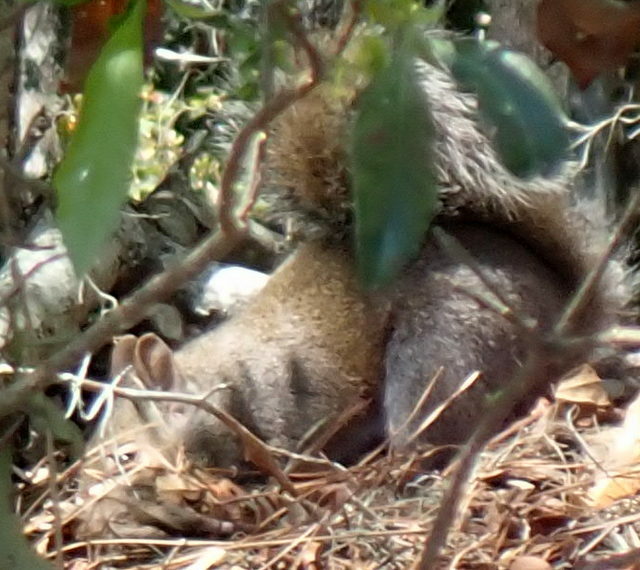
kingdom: Animalia
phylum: Chordata
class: Mammalia
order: Rodentia
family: Sciuridae
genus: Sciurus
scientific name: Sciurus carolinensis
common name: Eastern gray squirrel
